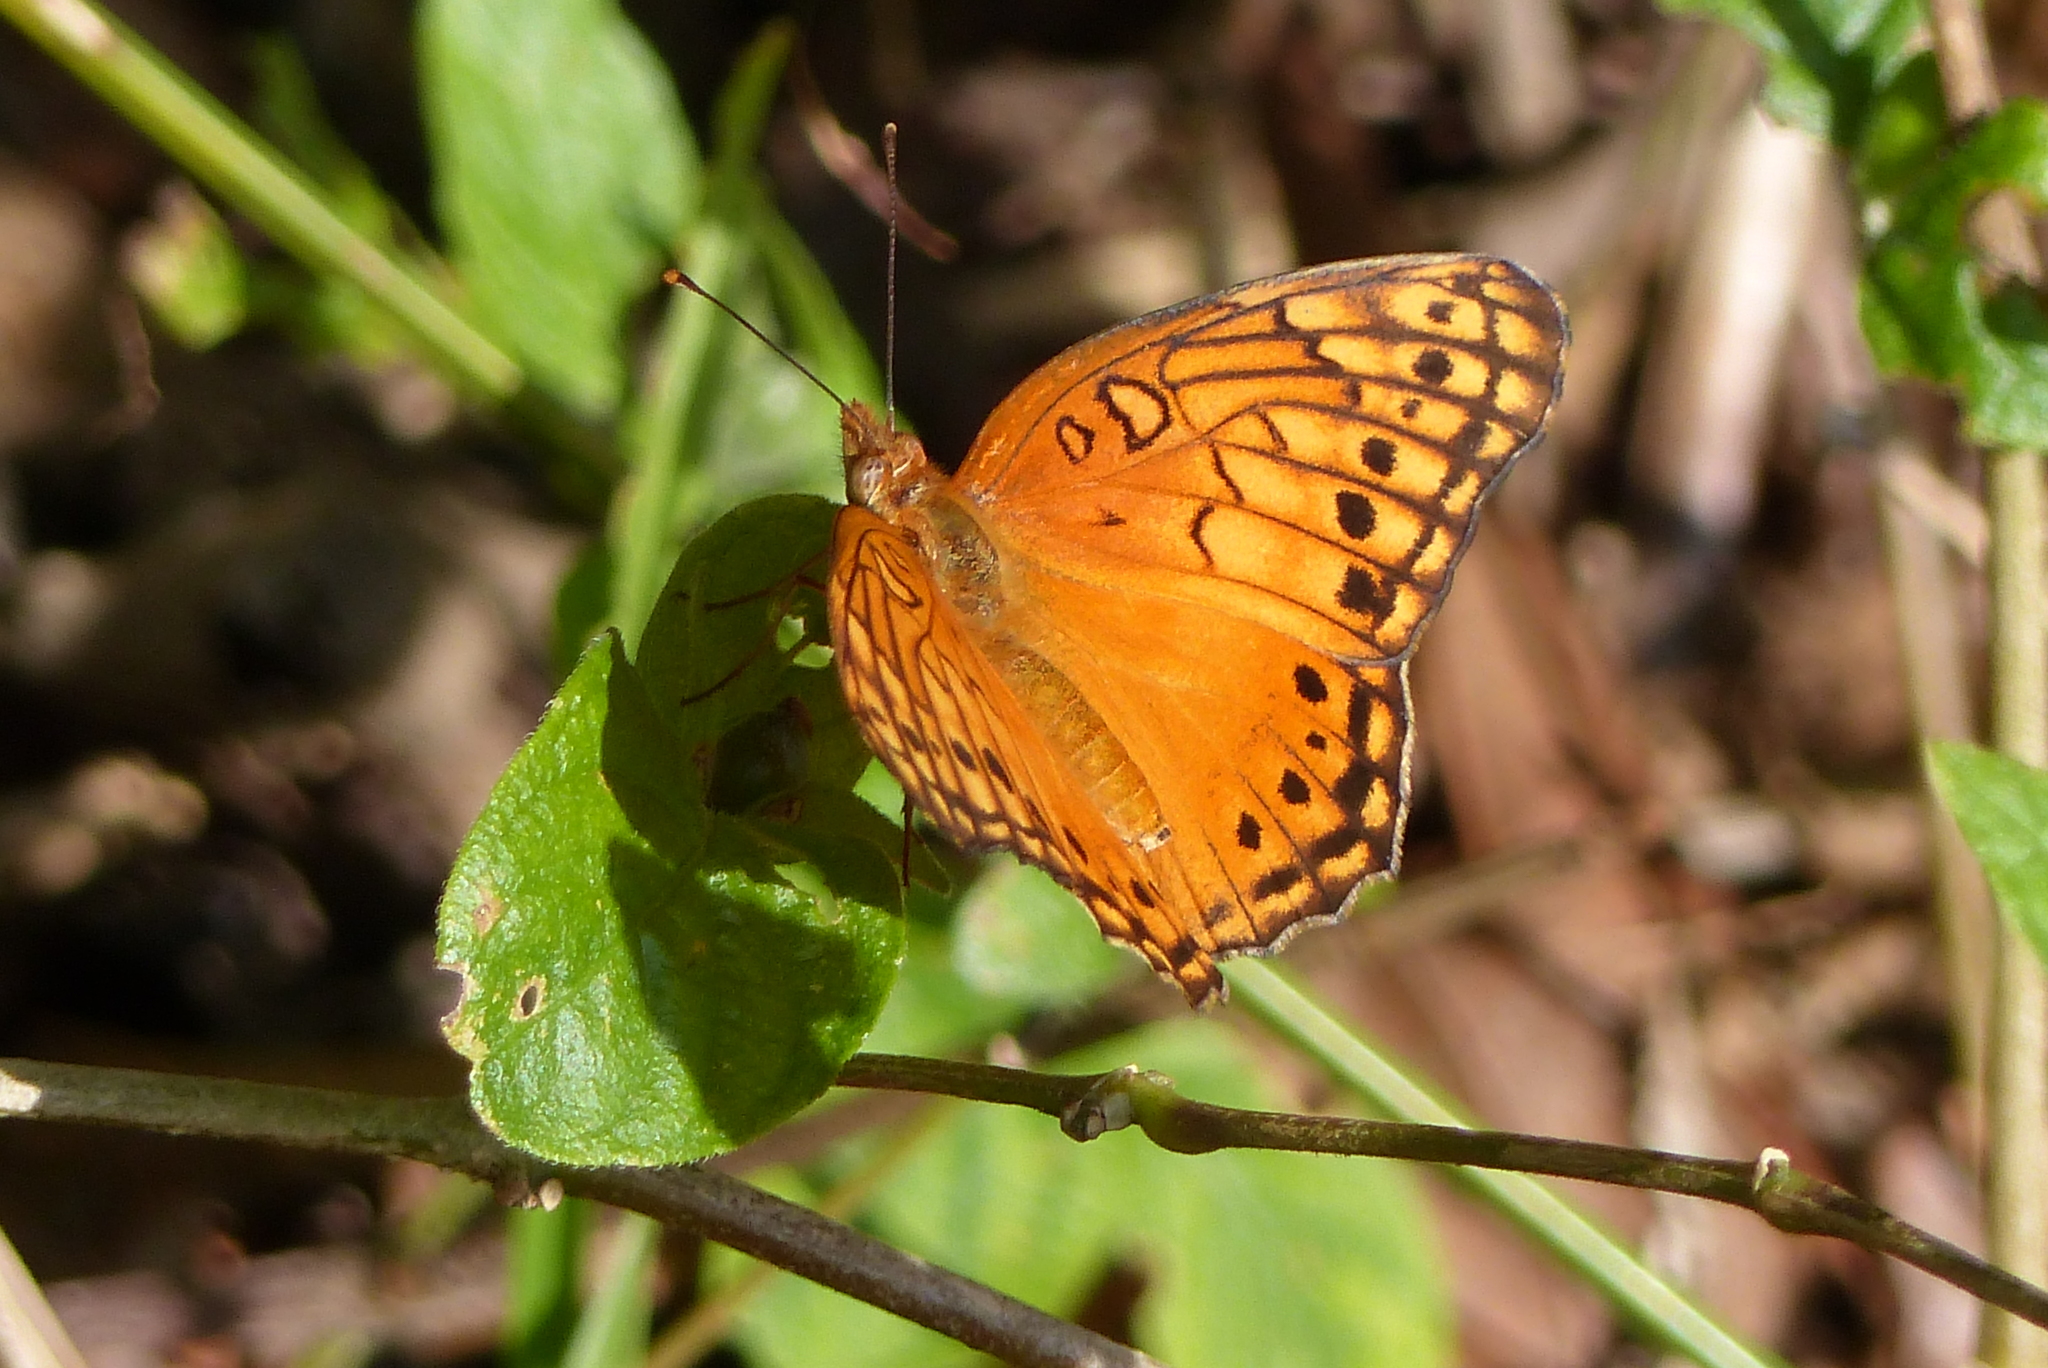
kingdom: Animalia
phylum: Arthropoda
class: Insecta
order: Lepidoptera
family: Nymphalidae
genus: Euptoieta
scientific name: Euptoieta hegesia
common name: Mexican fritillary
